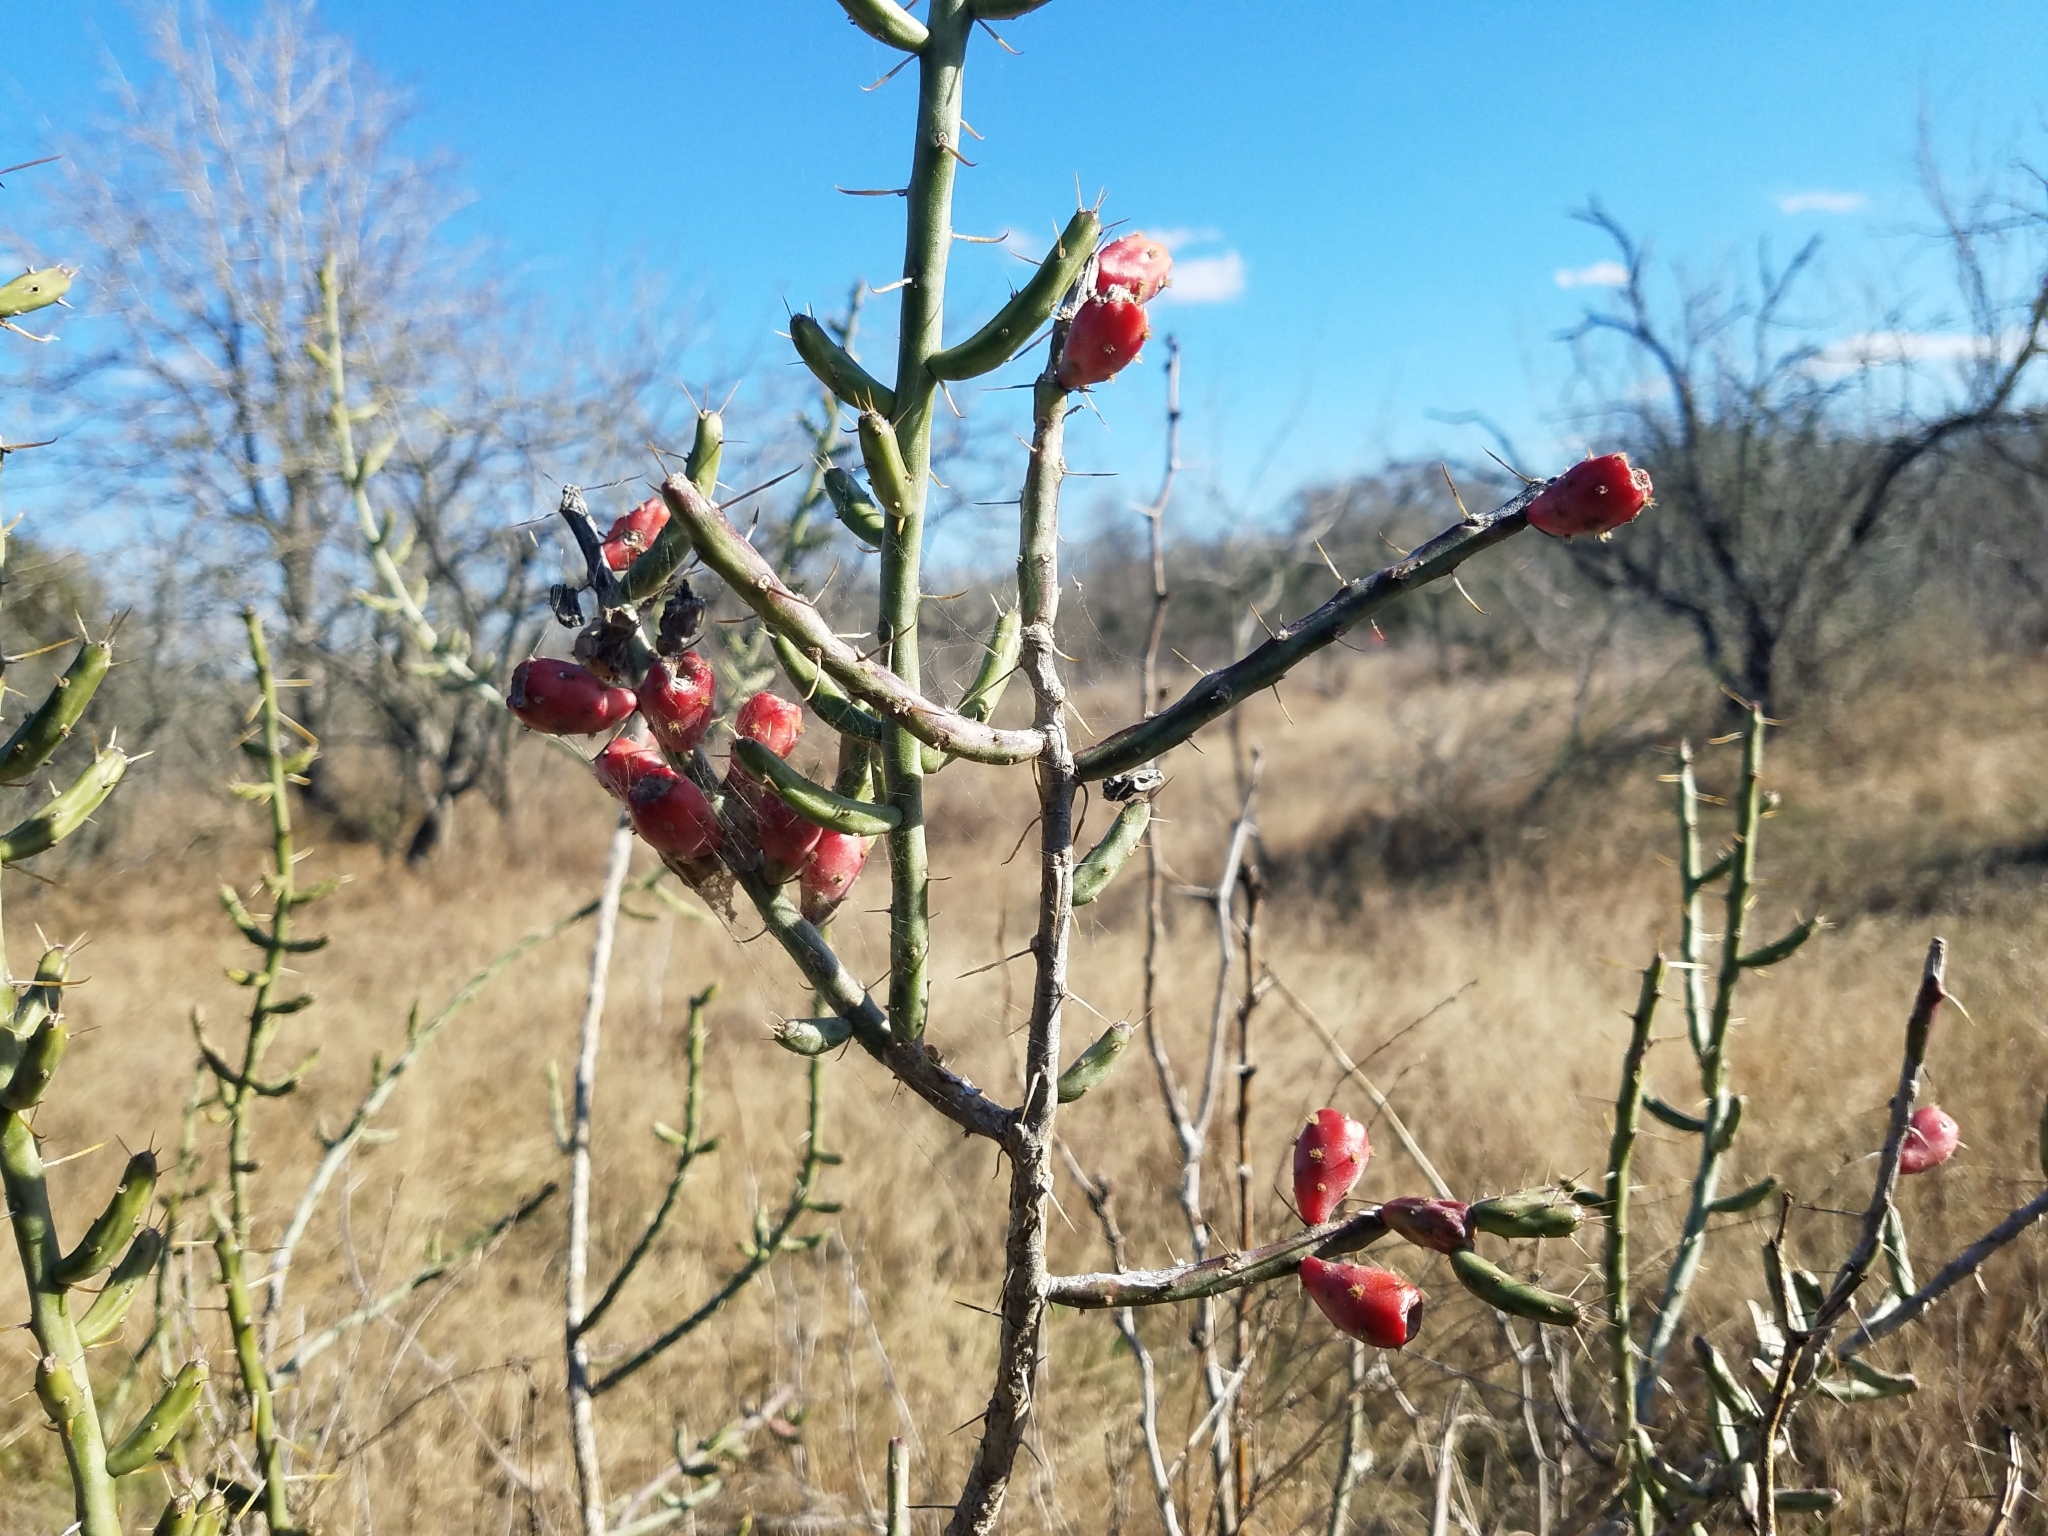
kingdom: Plantae
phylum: Tracheophyta
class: Magnoliopsida
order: Caryophyllales
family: Cactaceae
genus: Cylindropuntia
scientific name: Cylindropuntia leptocaulis
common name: Christmas cactus
